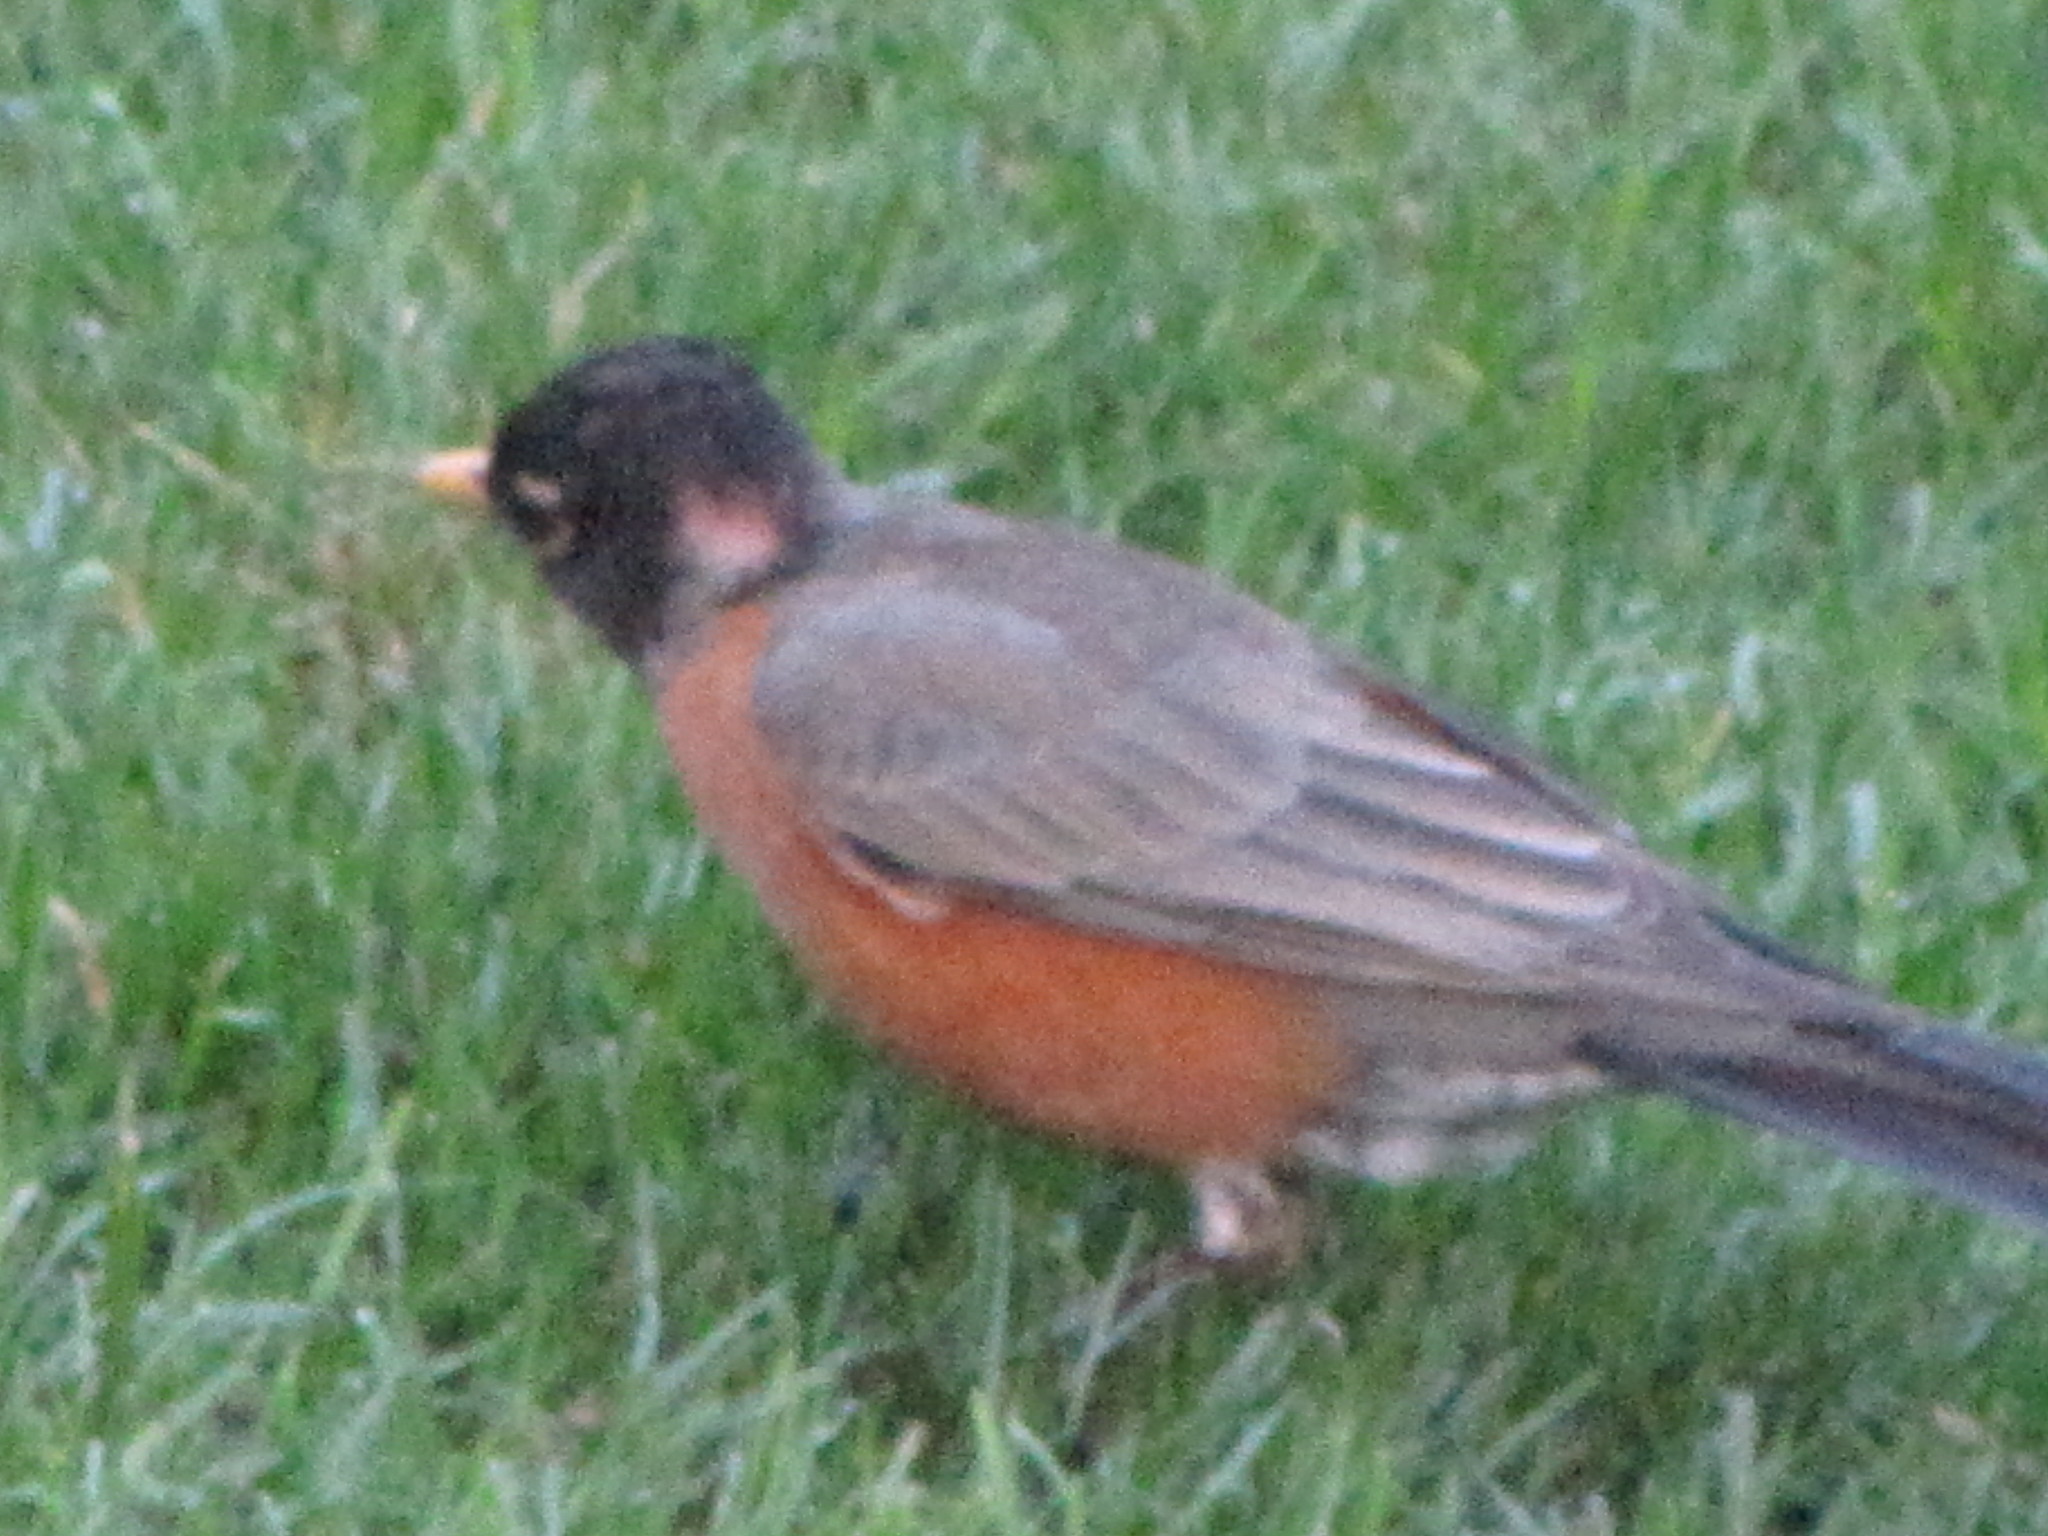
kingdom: Animalia
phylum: Chordata
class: Aves
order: Passeriformes
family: Turdidae
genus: Turdus
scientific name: Turdus migratorius
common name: American robin
